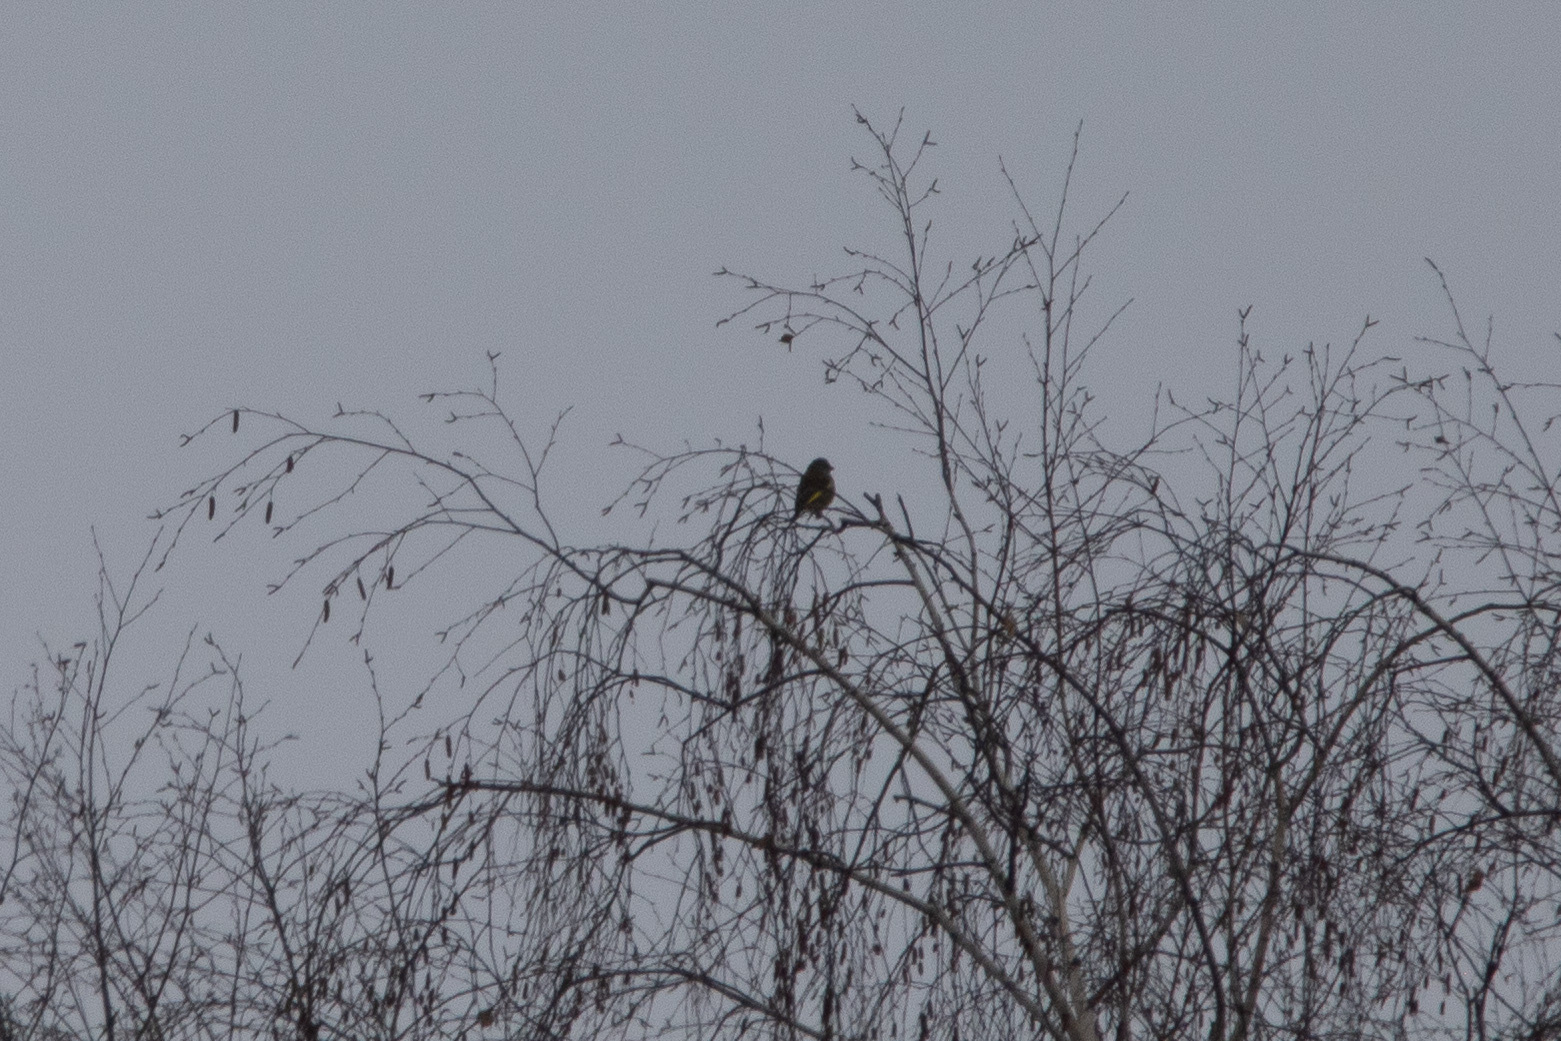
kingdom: Plantae
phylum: Tracheophyta
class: Liliopsida
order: Poales
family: Poaceae
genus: Chloris
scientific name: Chloris chloris
